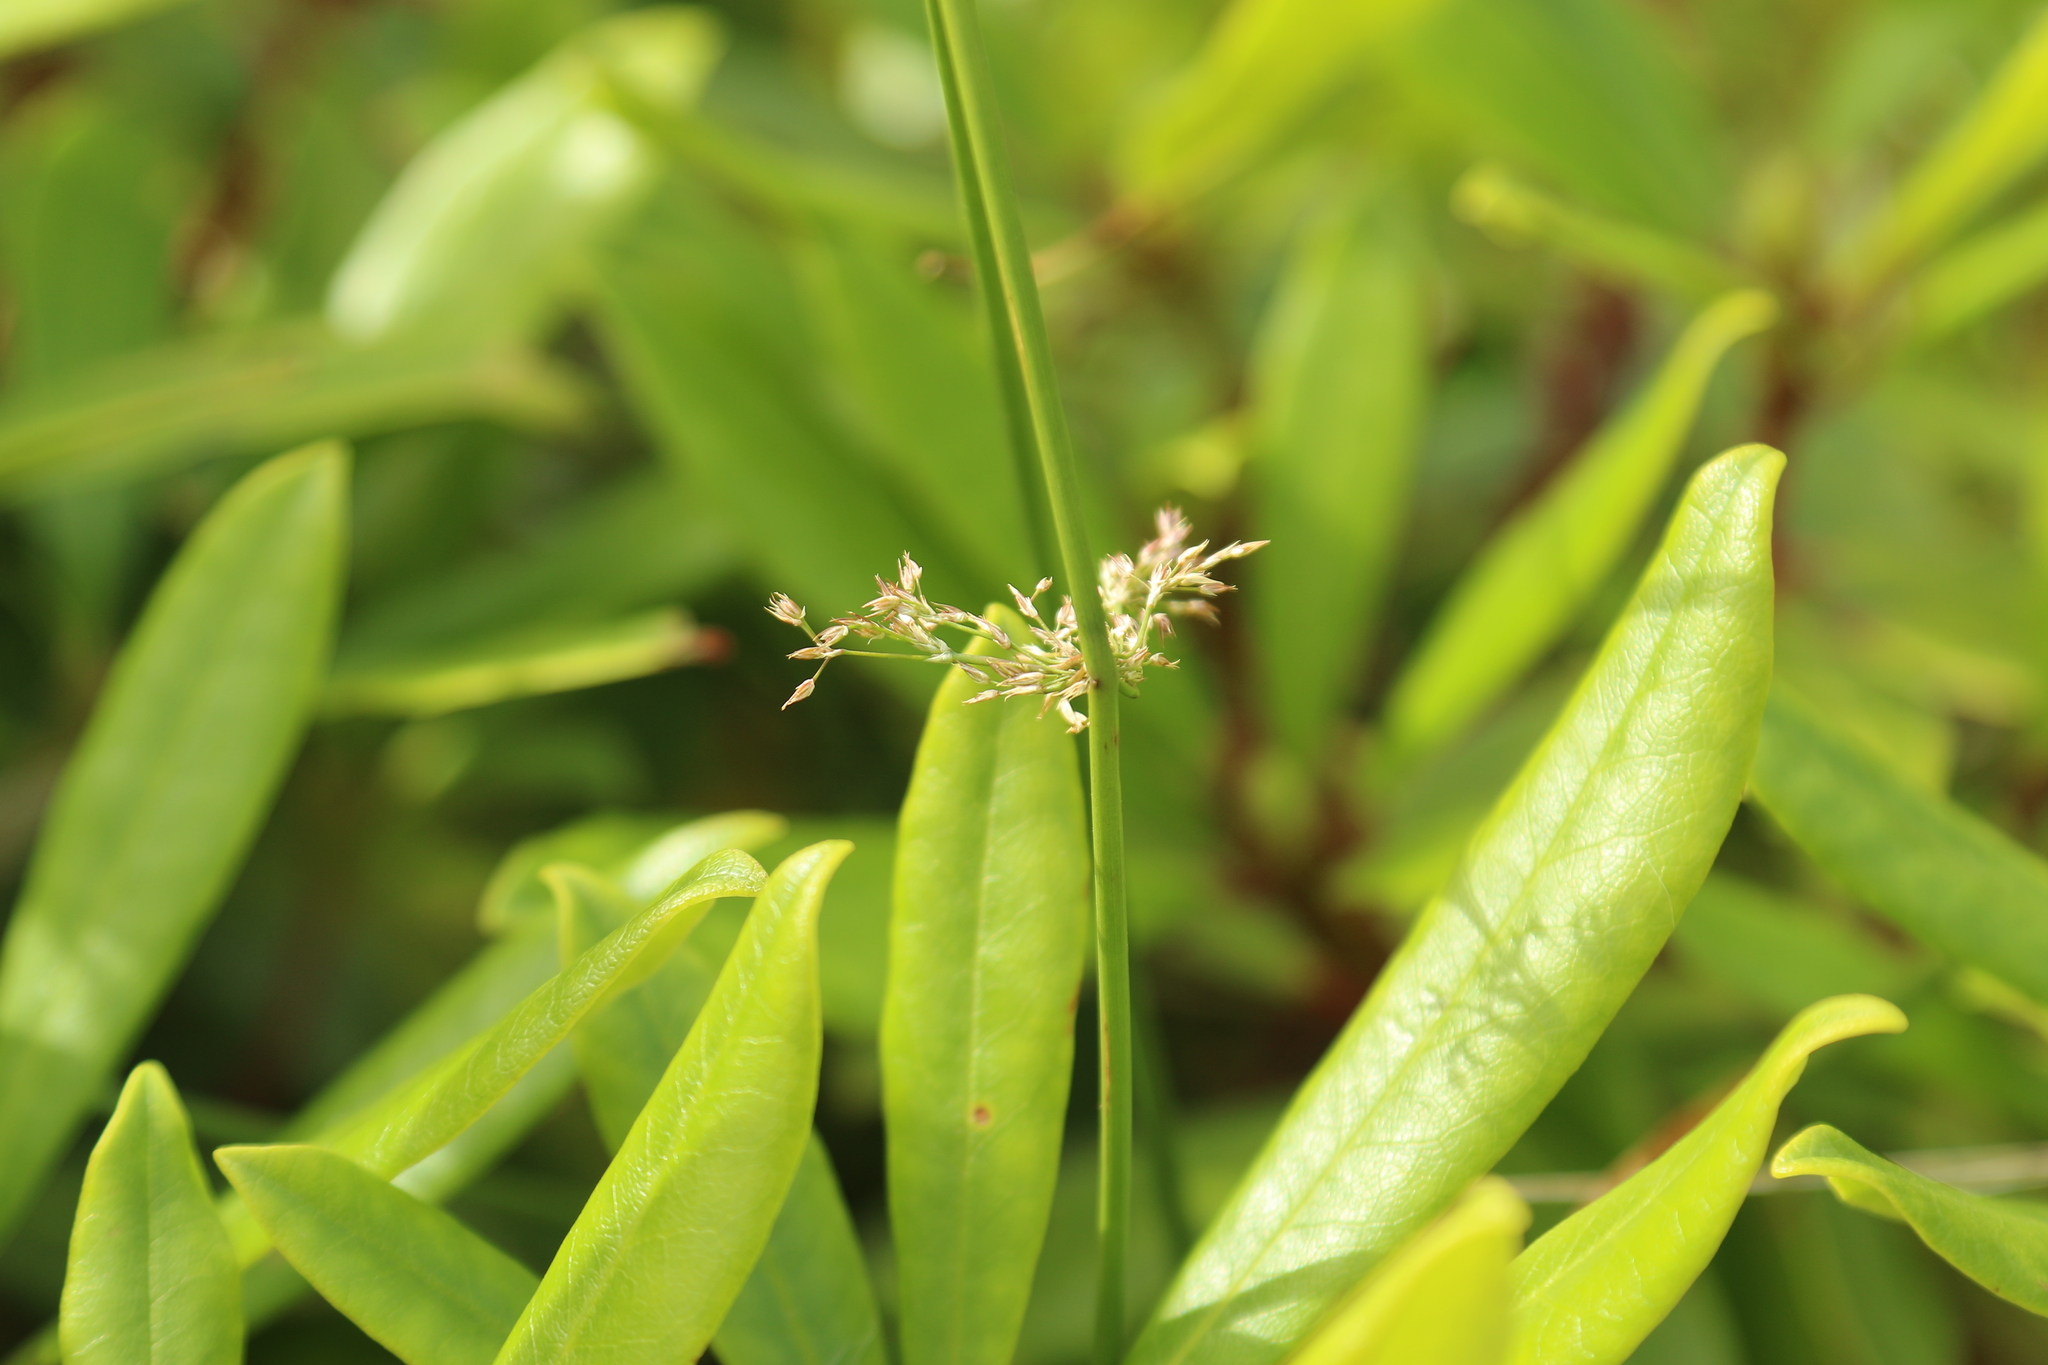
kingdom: Plantae
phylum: Tracheophyta
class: Liliopsida
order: Poales
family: Juncaceae
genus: Juncus
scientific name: Juncus effusus
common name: Soft rush
